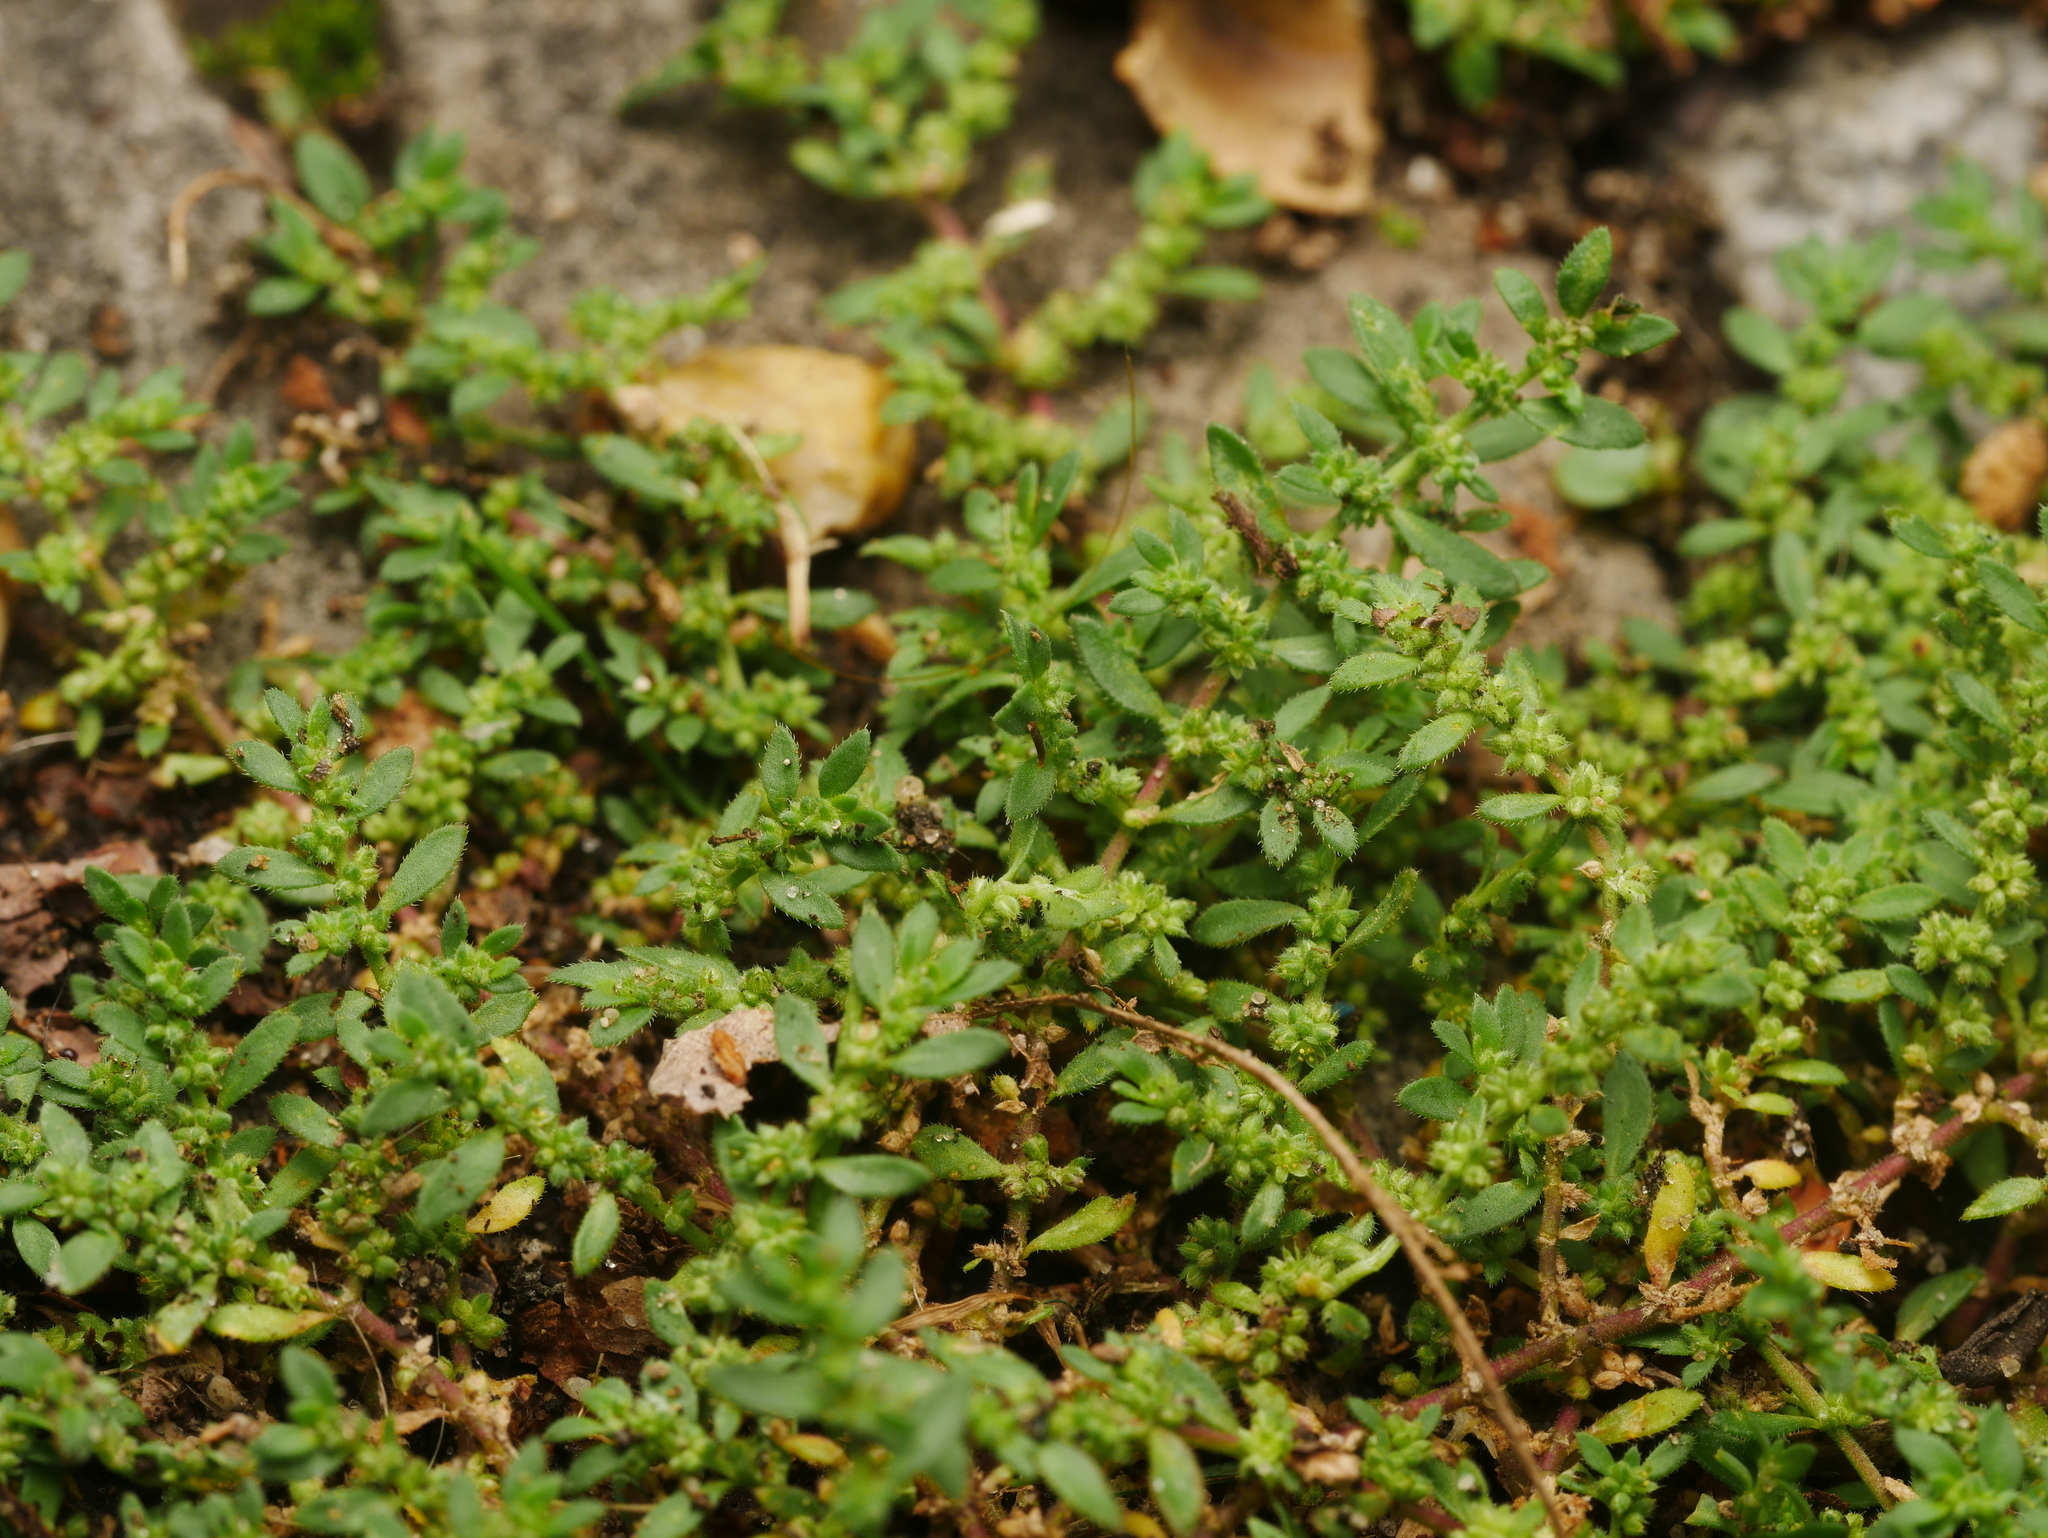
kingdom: Plantae
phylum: Tracheophyta
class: Magnoliopsida
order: Caryophyllales
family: Caryophyllaceae
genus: Herniaria
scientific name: Herniaria hirsuta
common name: Hairy rupturewort
